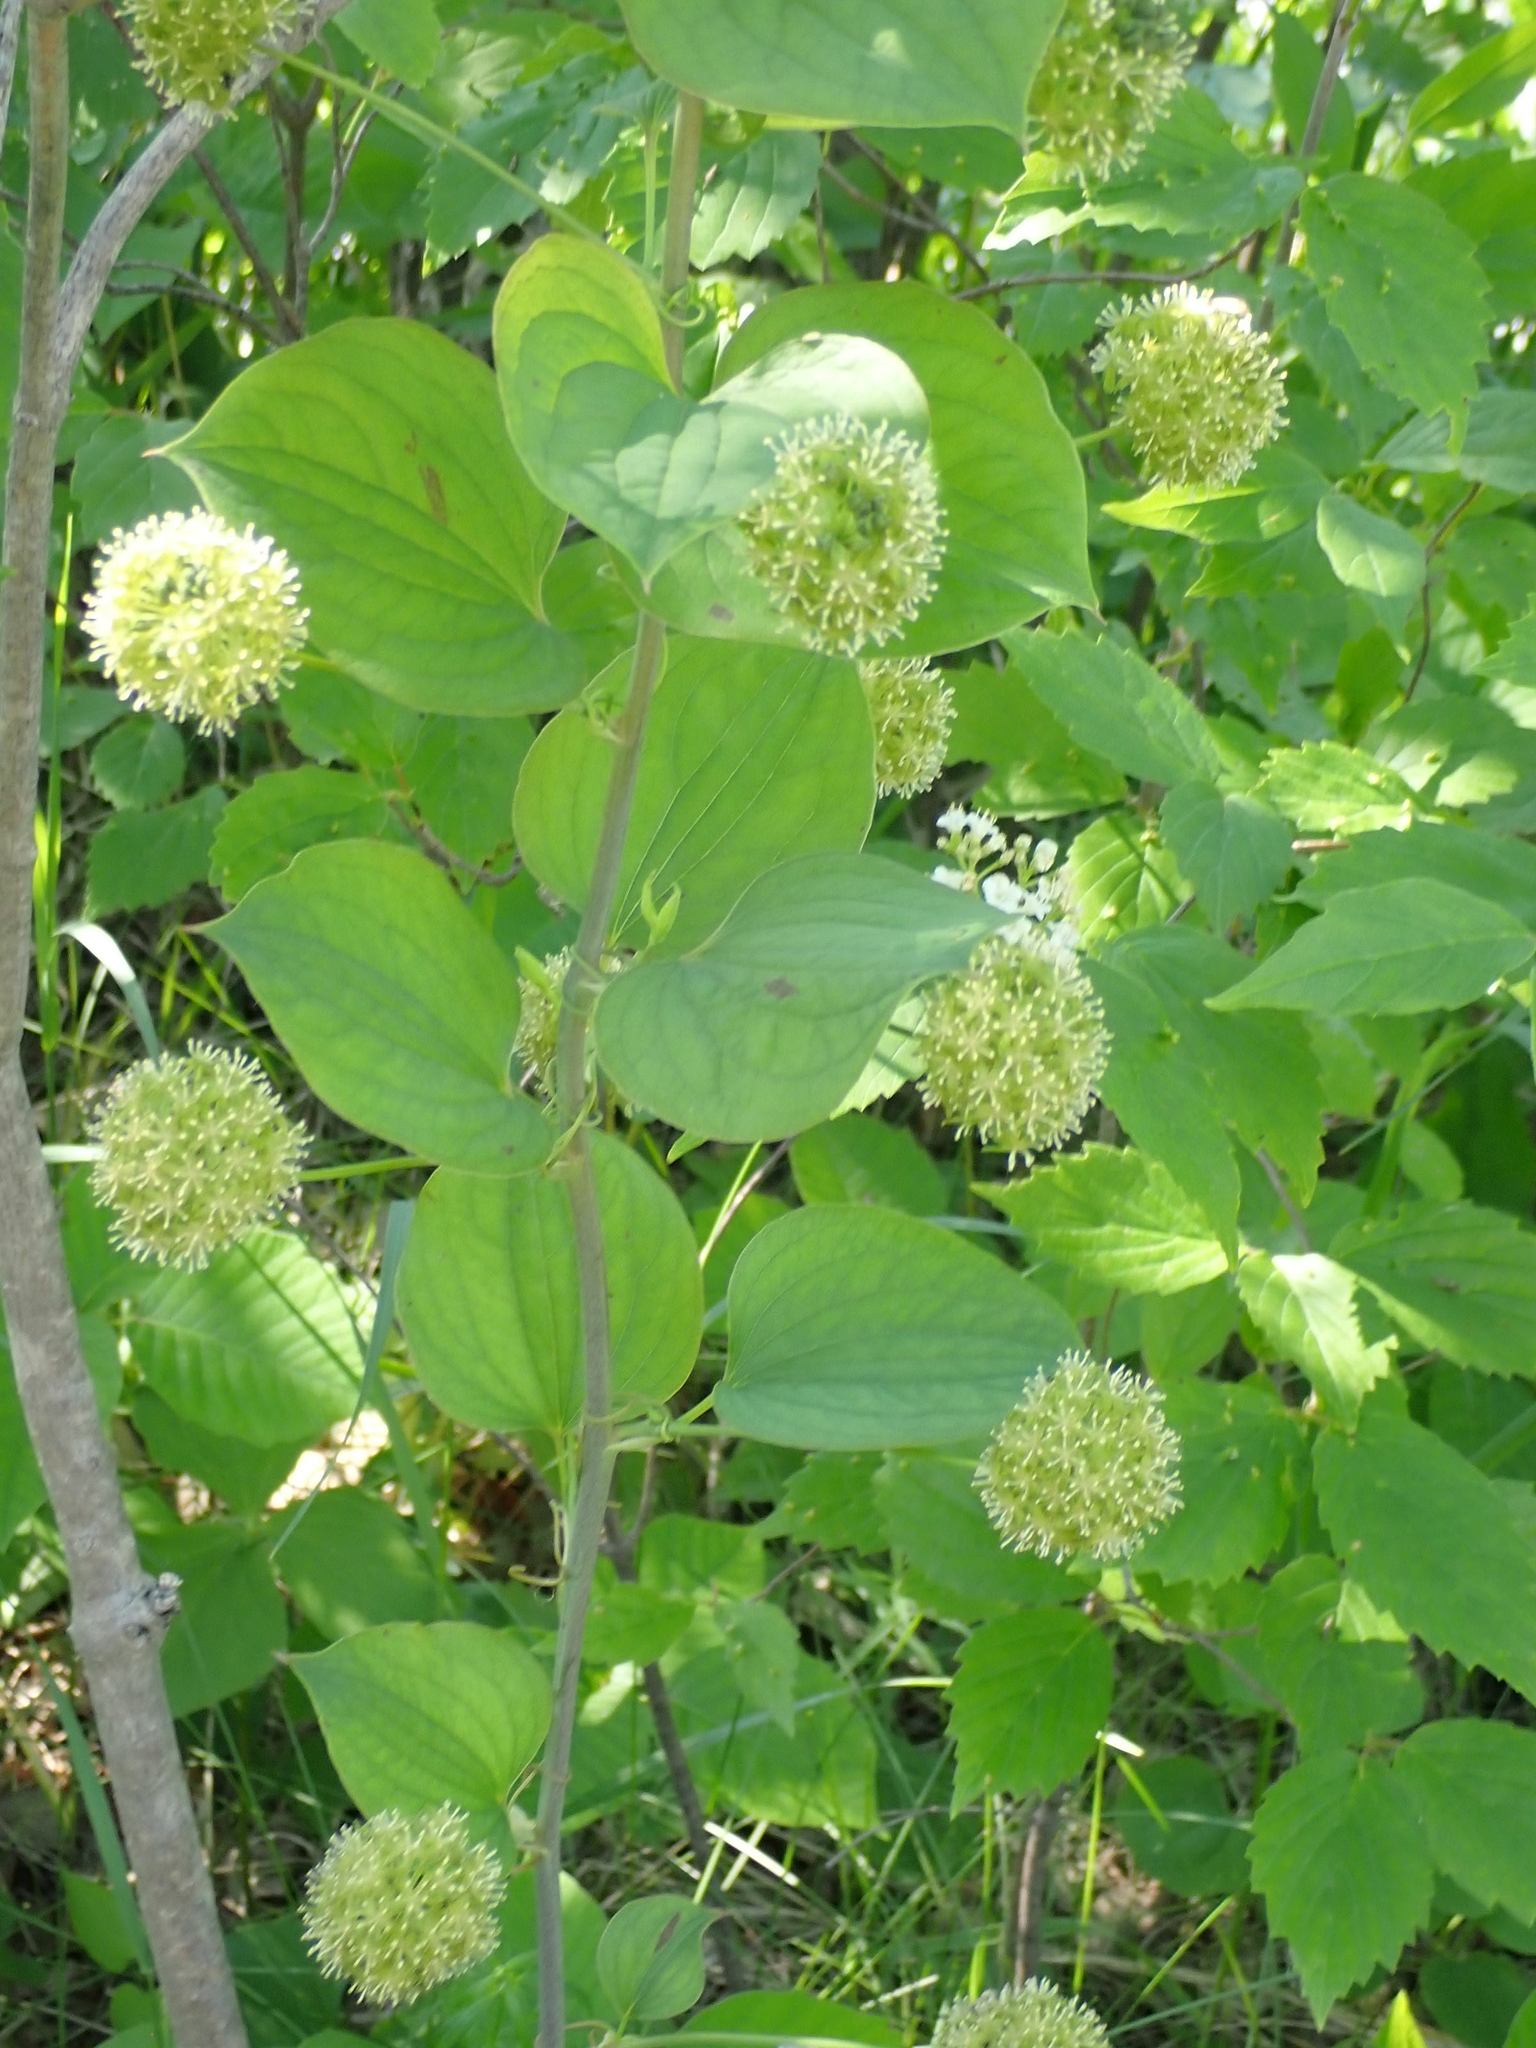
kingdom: Plantae
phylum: Tracheophyta
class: Liliopsida
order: Liliales
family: Smilacaceae
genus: Smilax
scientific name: Smilax lasioneura
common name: Blue ridge carrionflower
